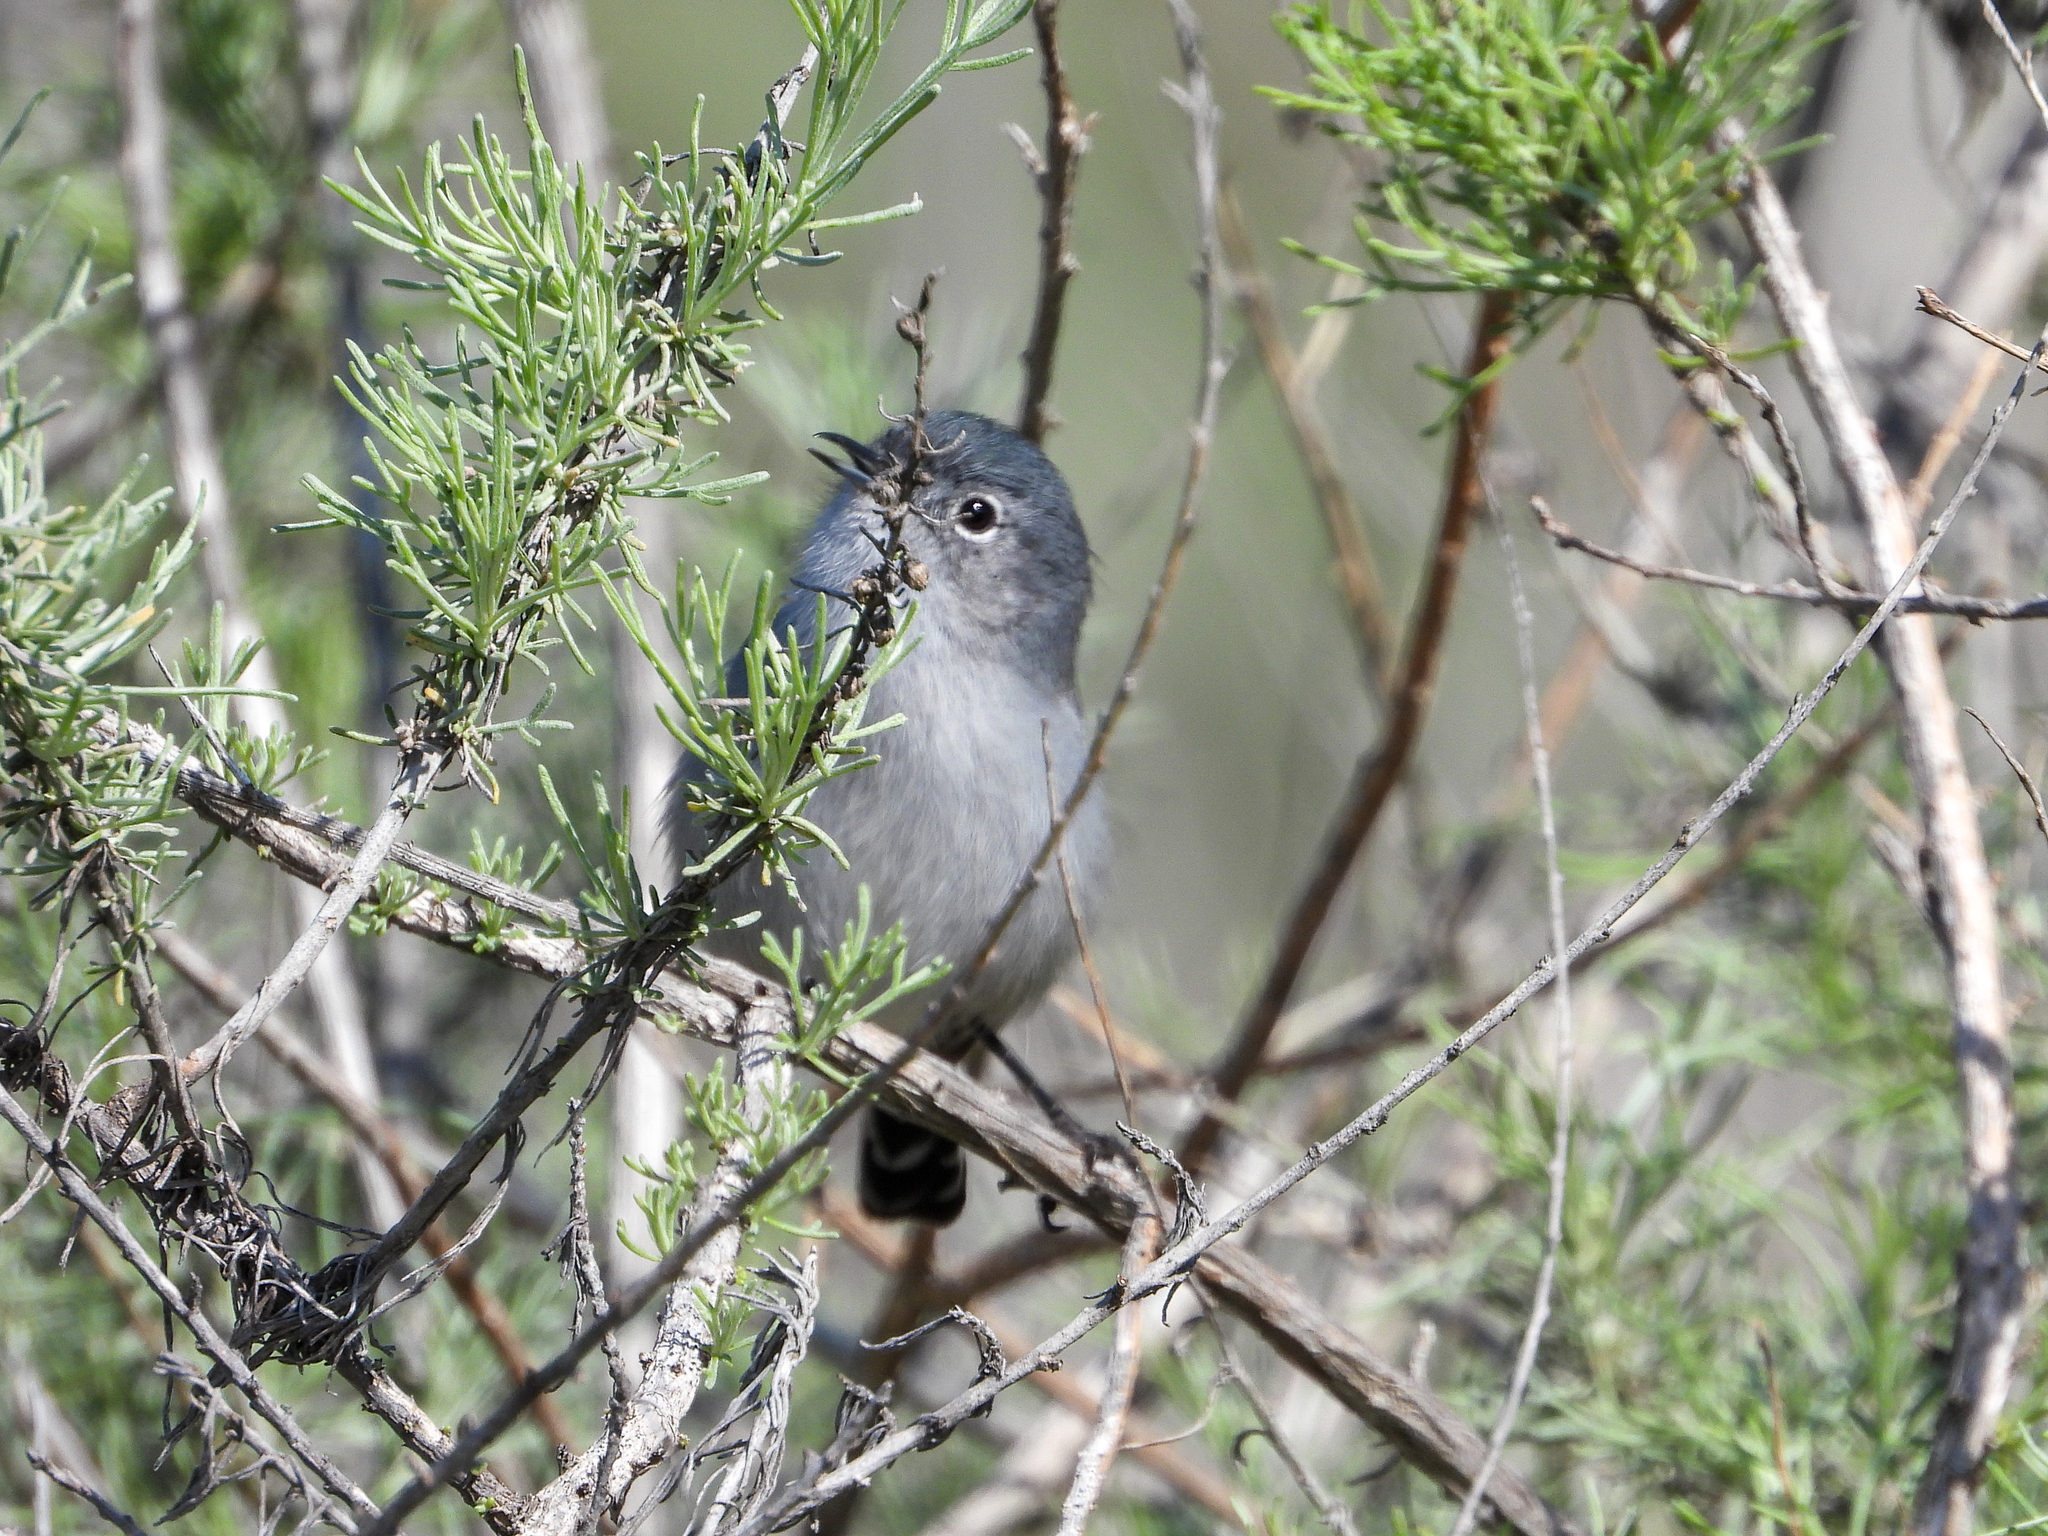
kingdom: Animalia
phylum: Chordata
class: Aves
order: Passeriformes
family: Polioptilidae
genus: Polioptila
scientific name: Polioptila californica
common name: California gnatcatcher
